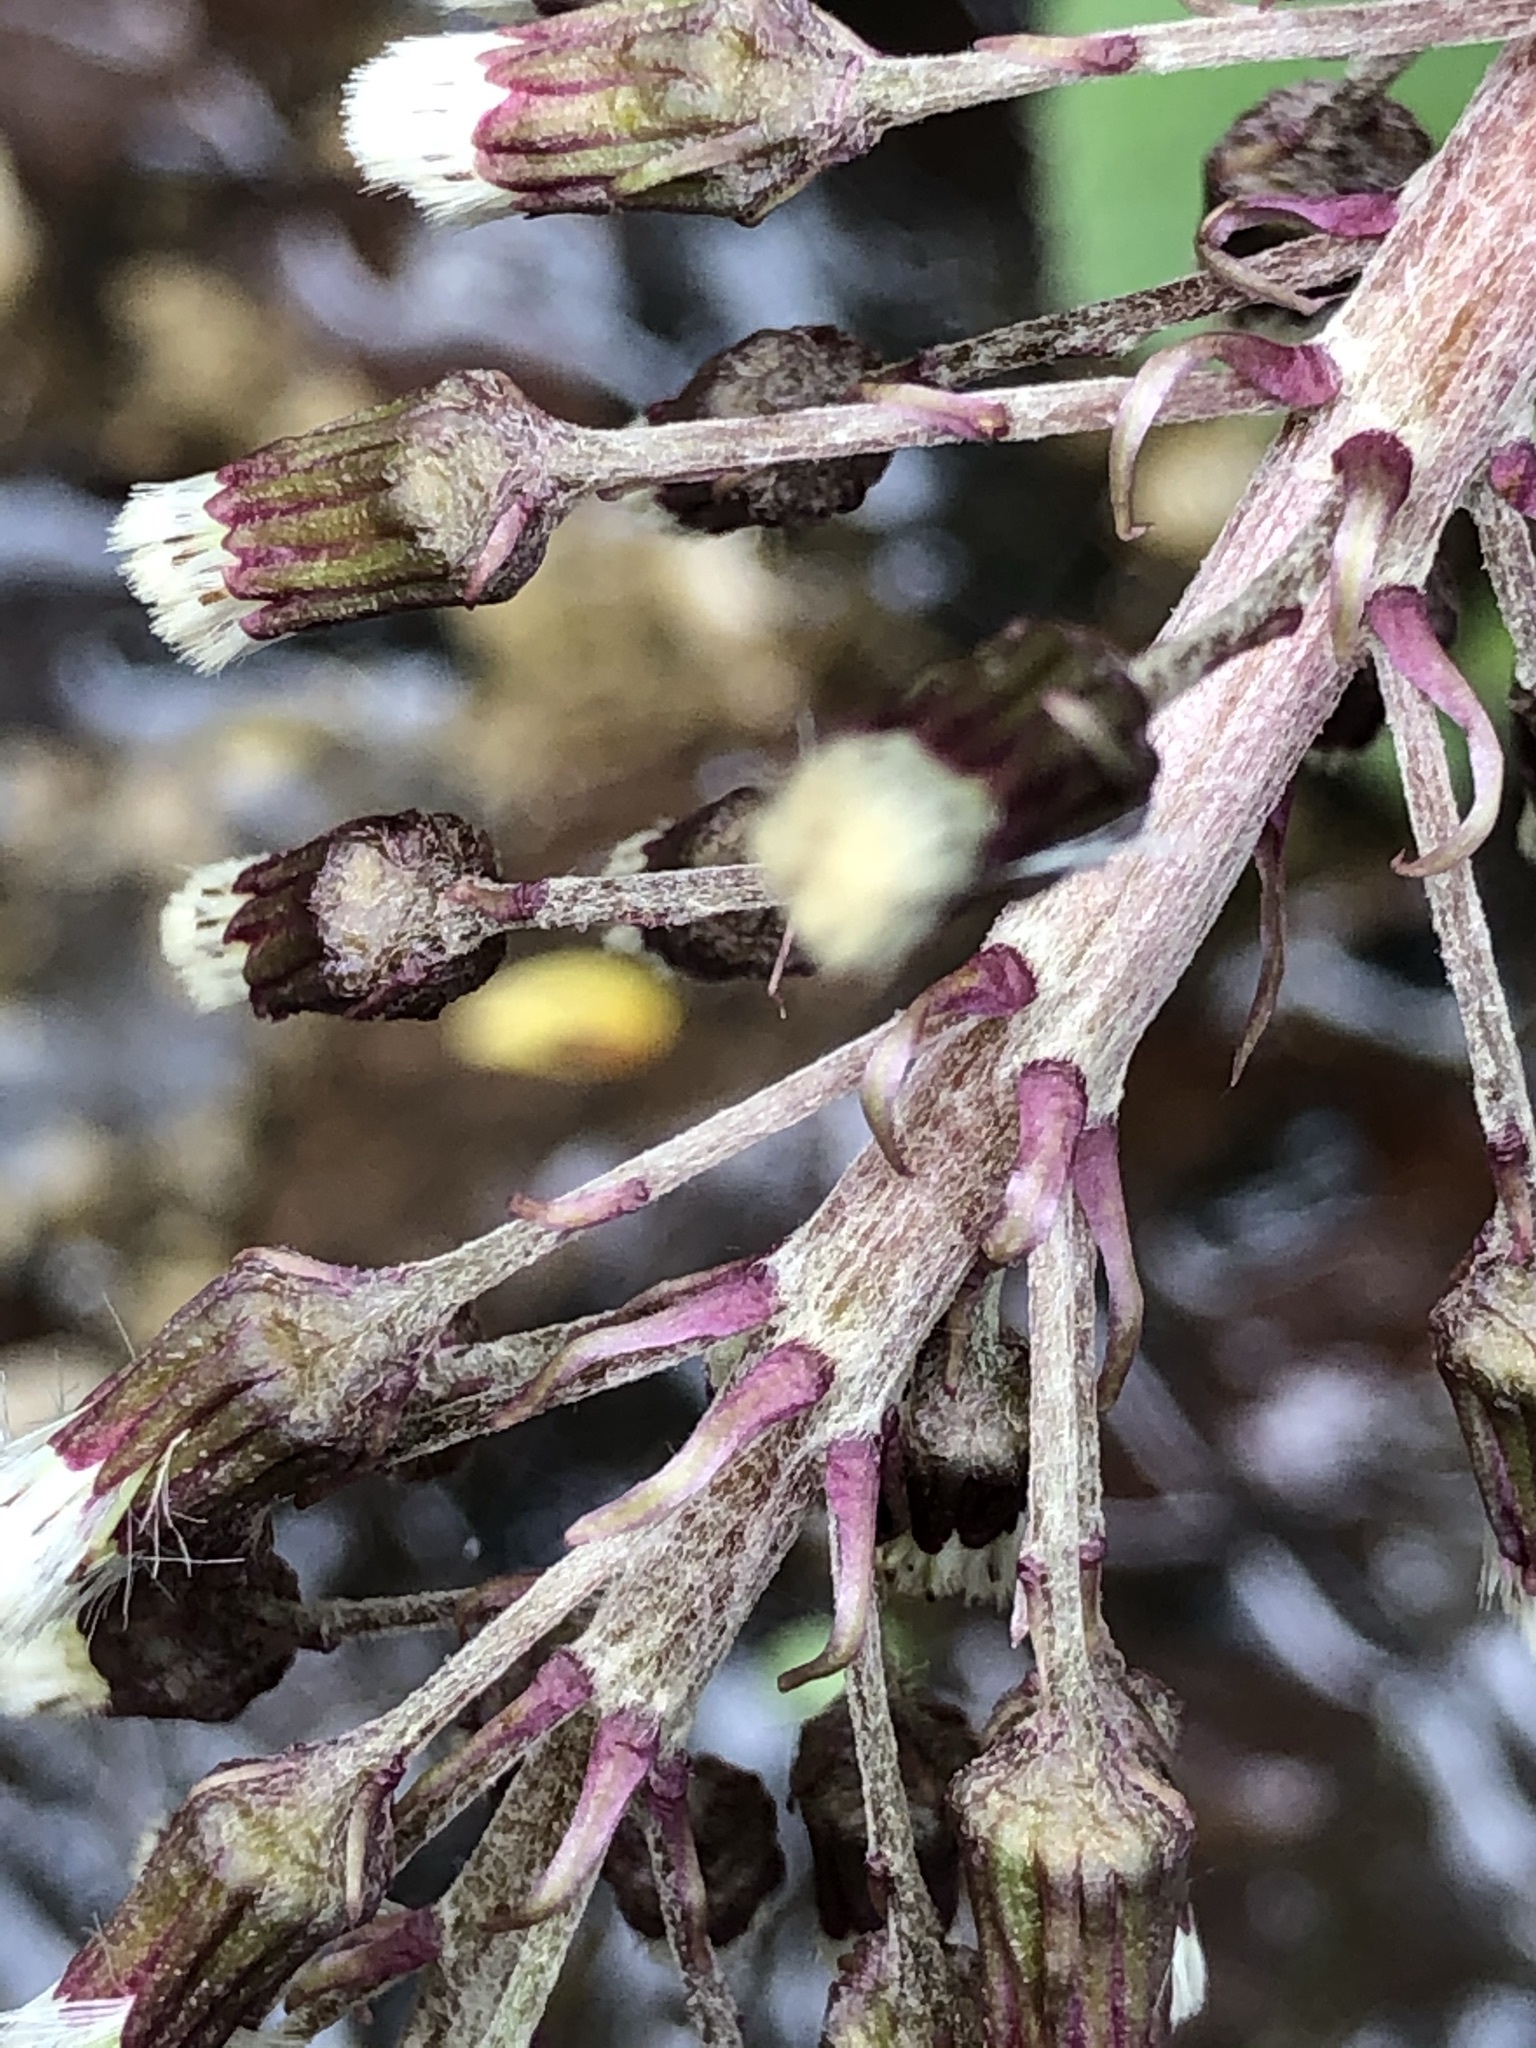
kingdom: Plantae
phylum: Tracheophyta
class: Magnoliopsida
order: Asterales
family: Asteraceae
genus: Petasites
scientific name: Petasites hybridus
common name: Butterbur
